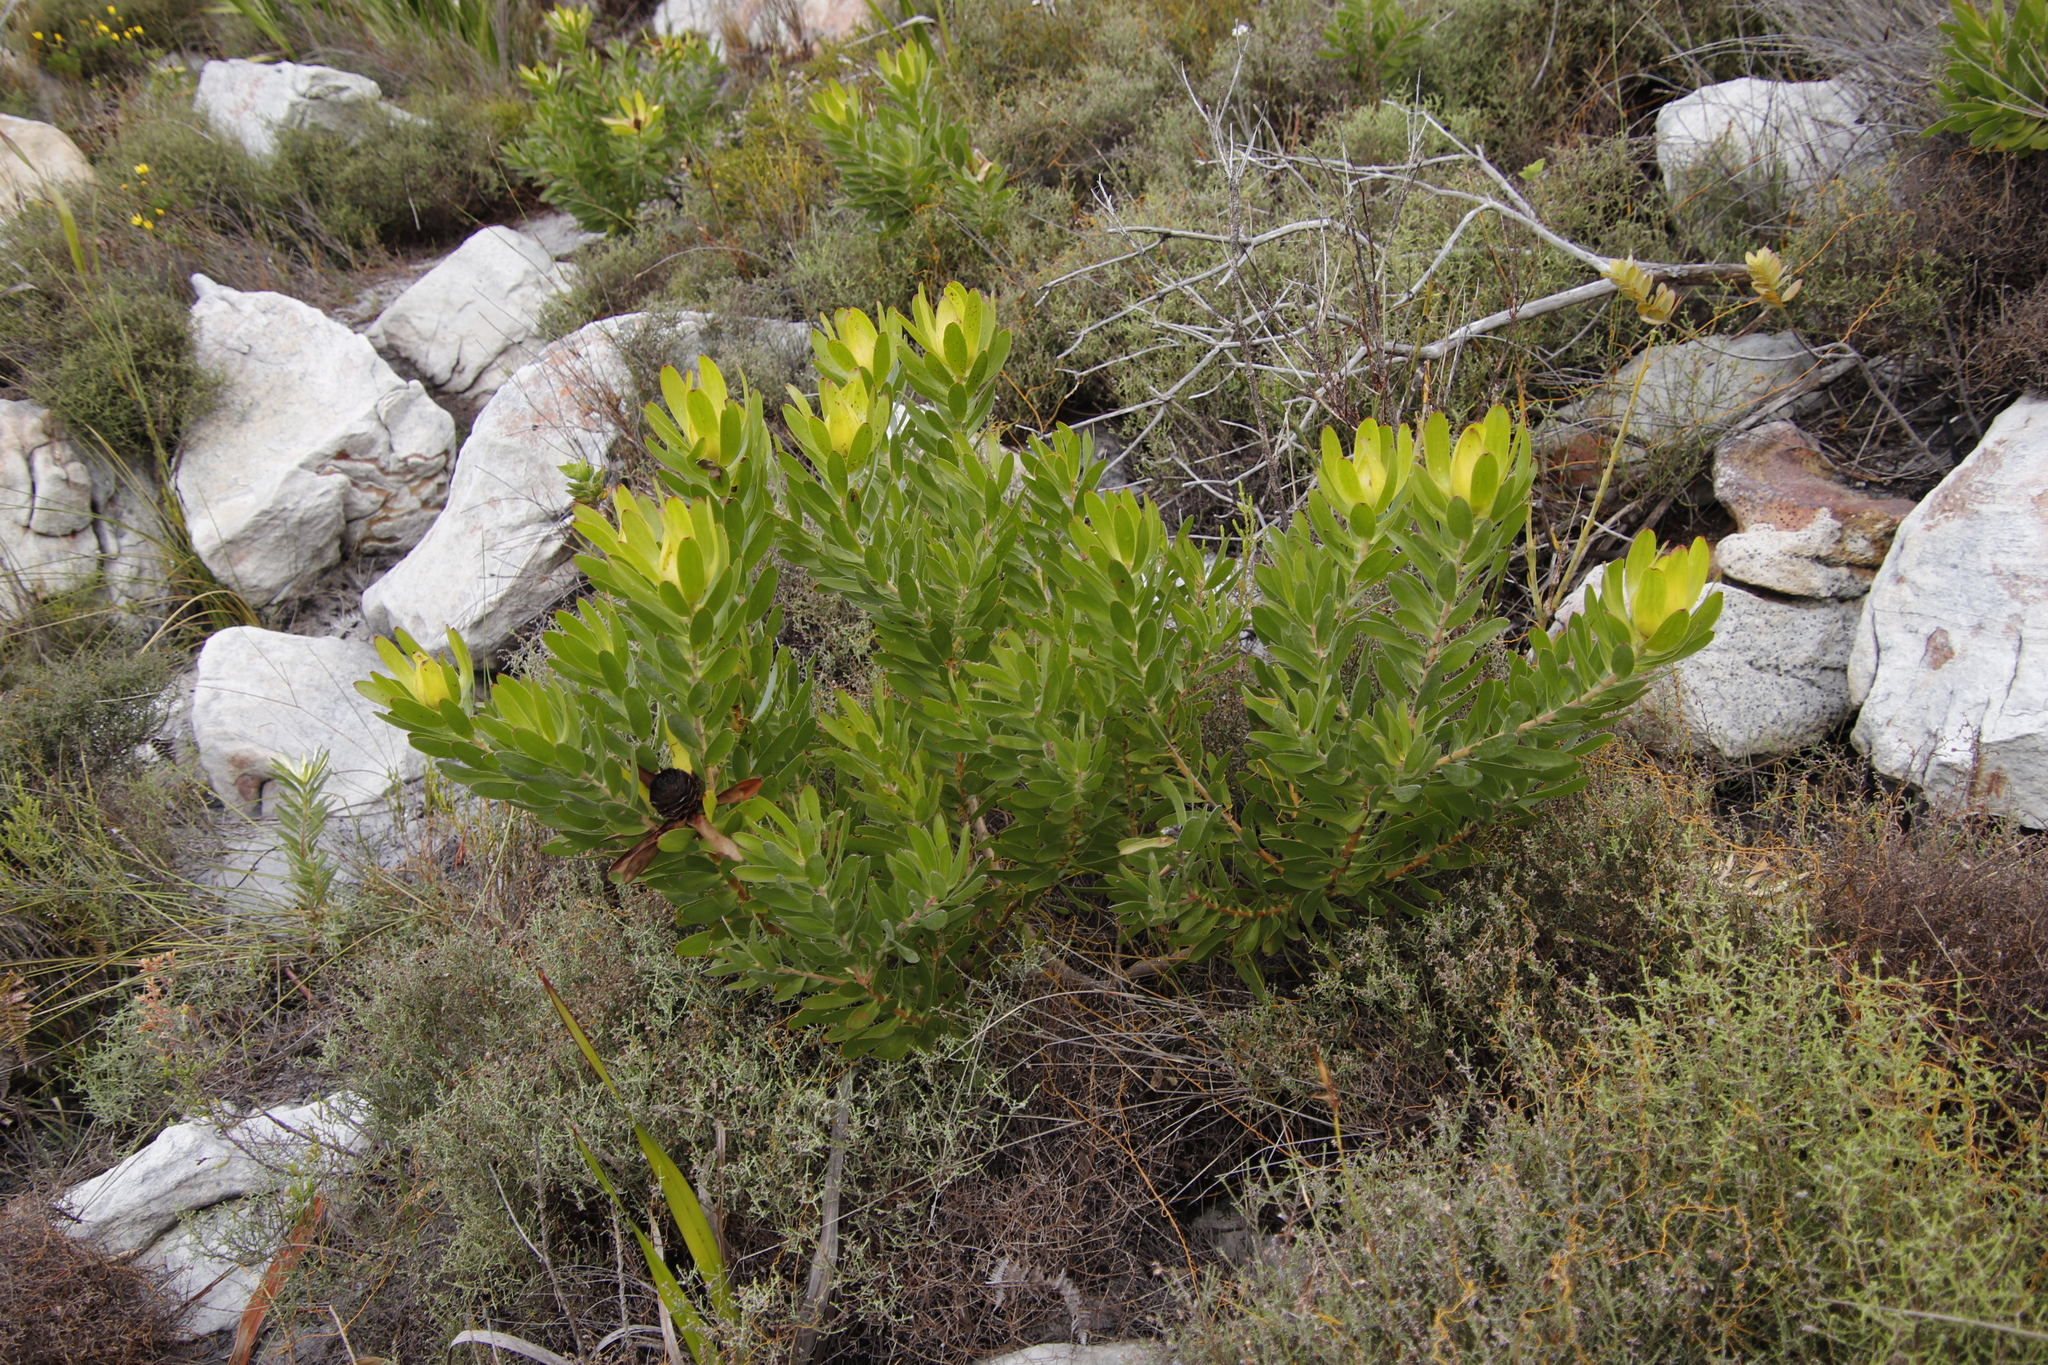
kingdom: Plantae
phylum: Tracheophyta
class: Magnoliopsida
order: Proteales
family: Proteaceae
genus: Leucadendron
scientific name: Leucadendron laureolum
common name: Golden sunshinebush
